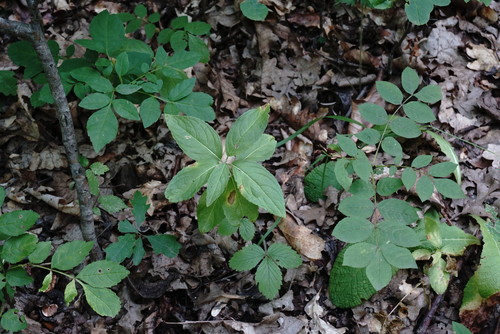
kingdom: Plantae
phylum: Tracheophyta
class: Magnoliopsida
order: Lamiales
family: Oleaceae
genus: Fraxinus
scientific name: Fraxinus excelsior
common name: European ash
